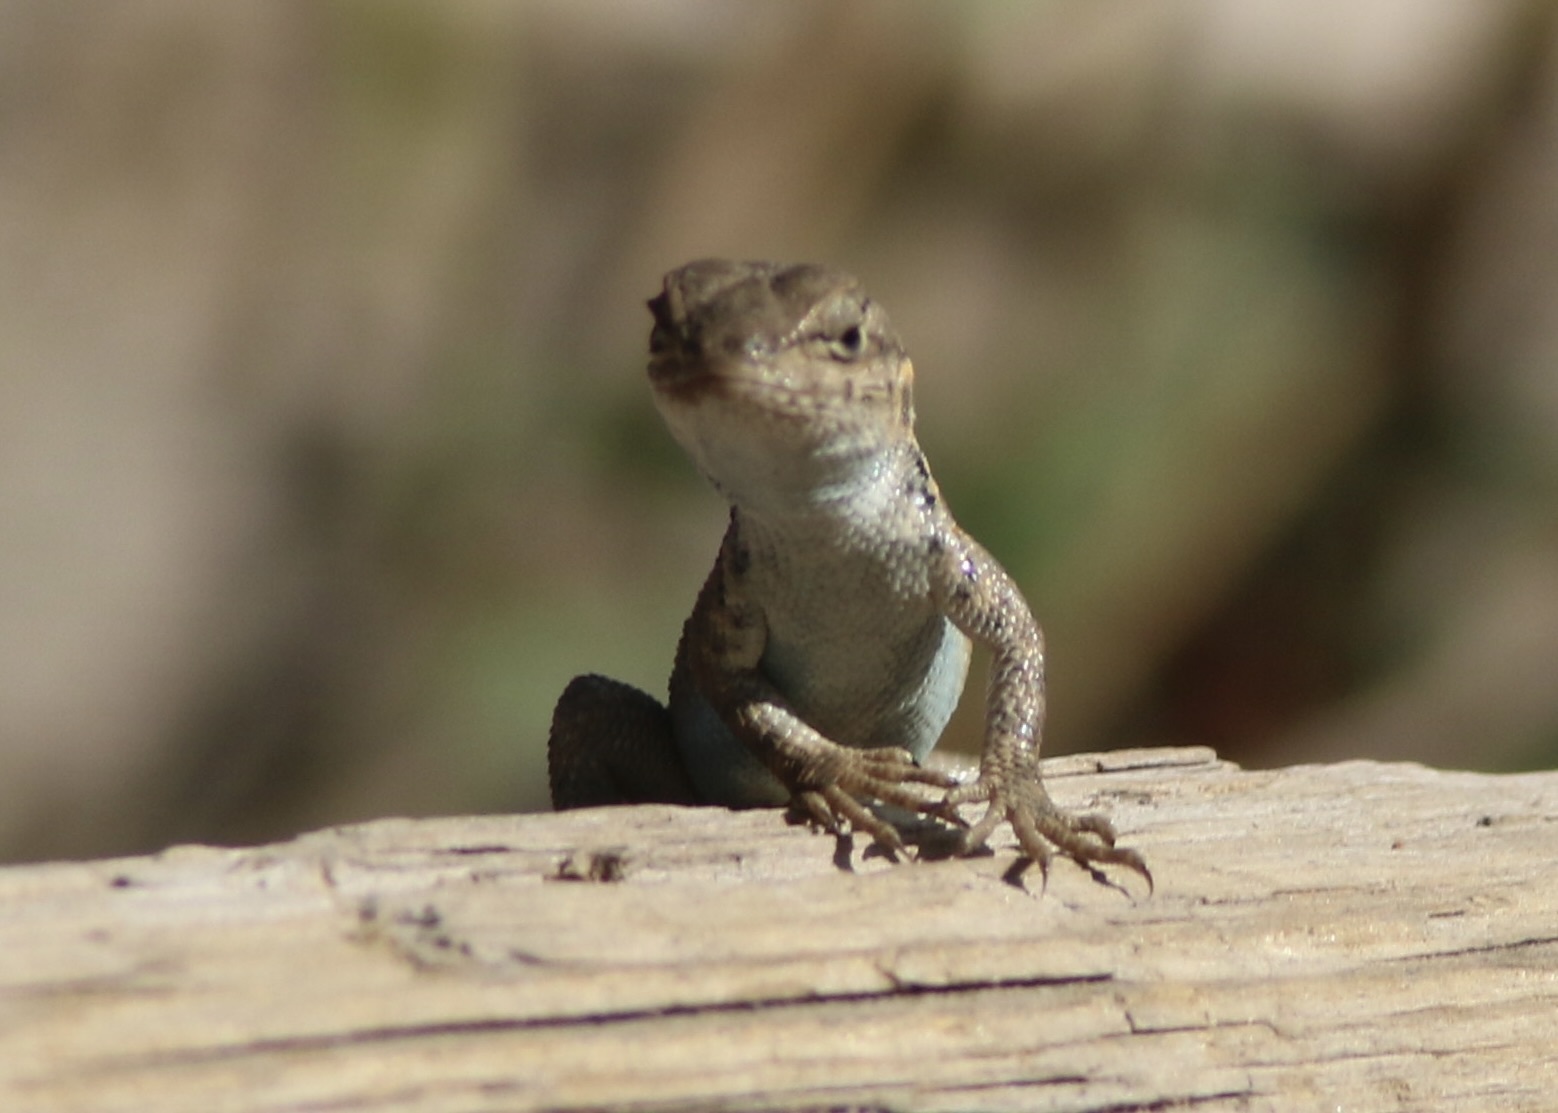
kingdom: Animalia
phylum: Chordata
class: Squamata
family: Phrynosomatidae
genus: Sceloporus
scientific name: Sceloporus graciosus
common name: Sagebrush lizard
